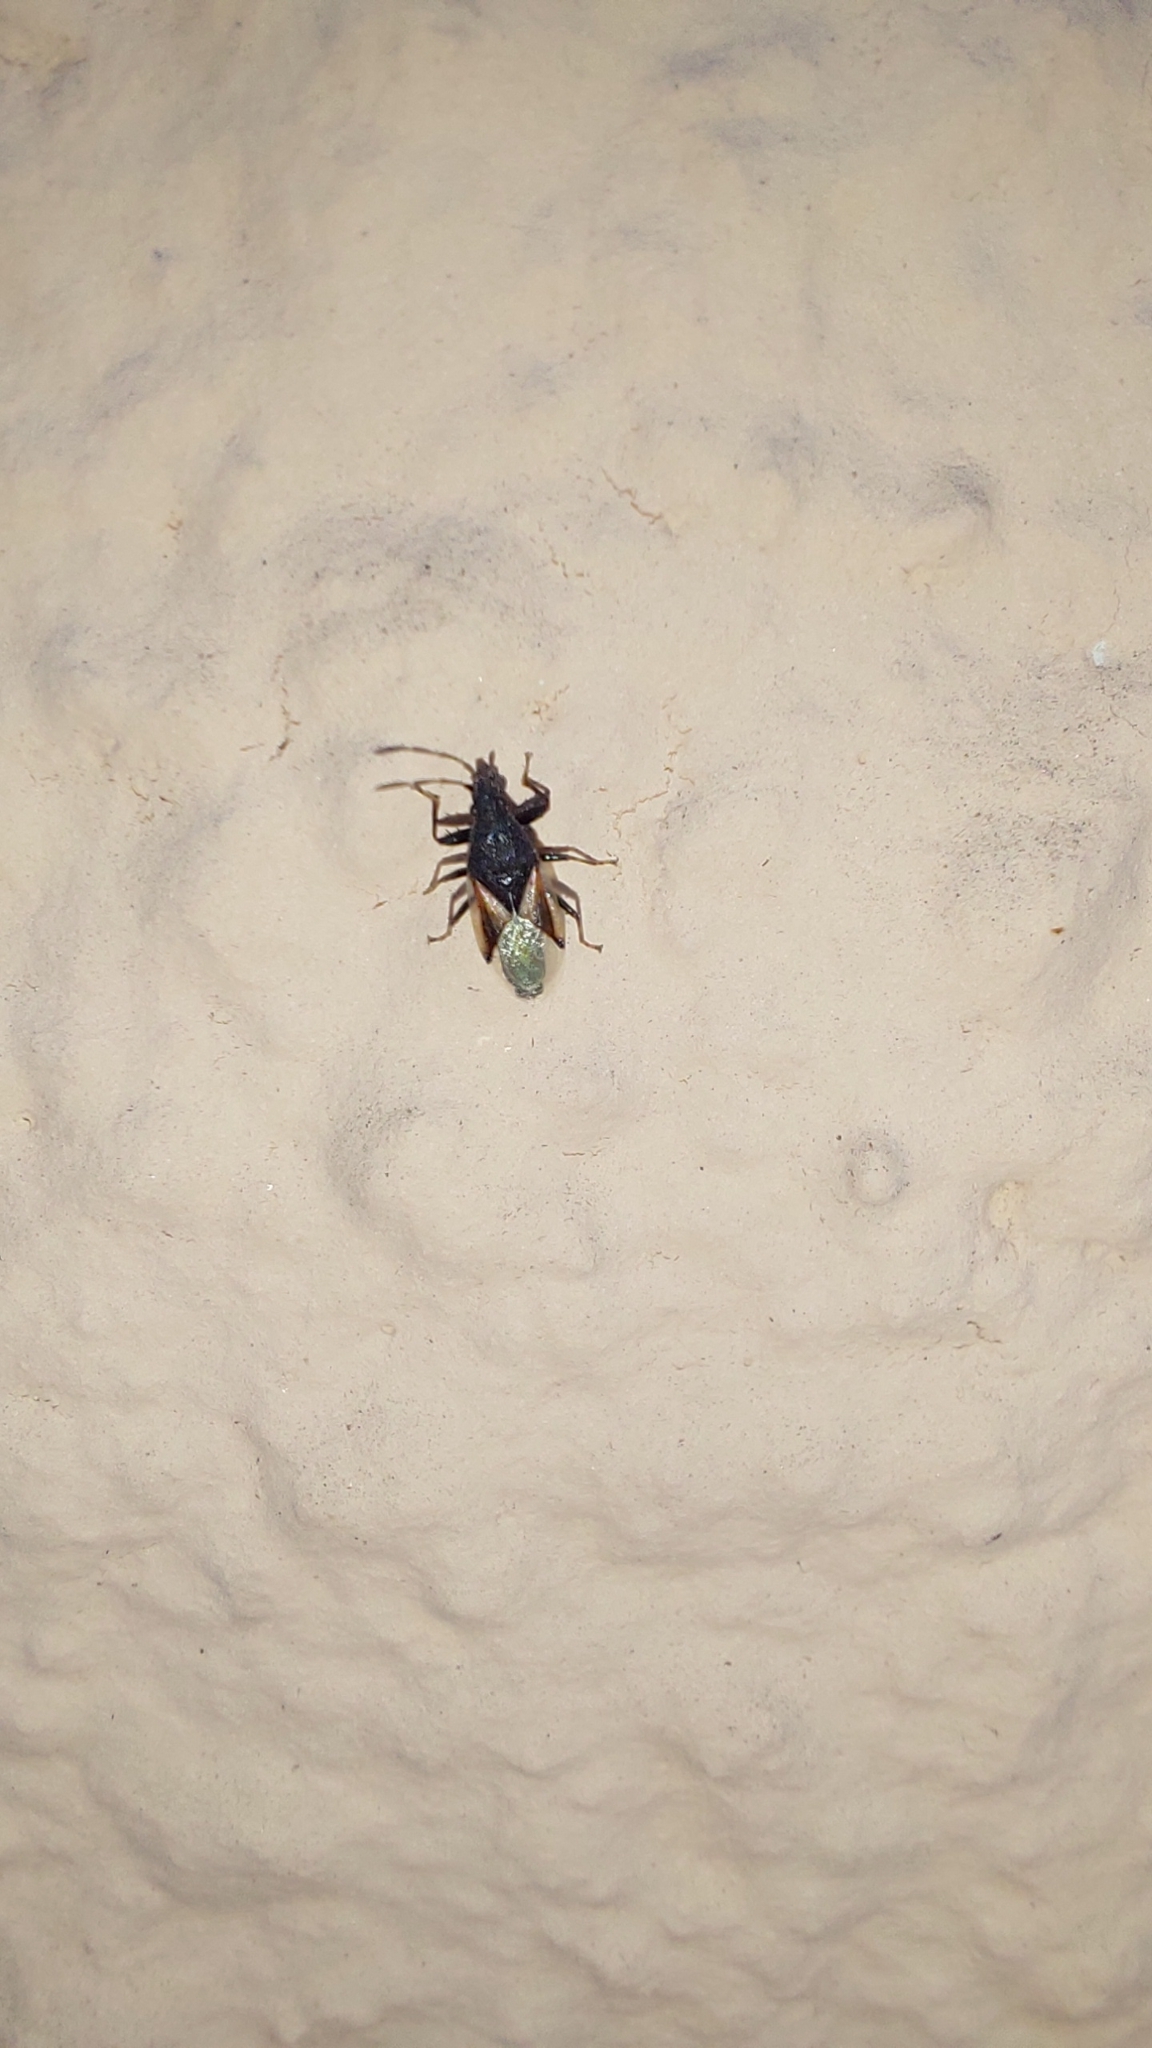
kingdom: Animalia
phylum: Arthropoda
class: Insecta
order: Hemiptera
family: Oxycarenidae
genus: Oxycarenus
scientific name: Oxycarenus lavaterae
